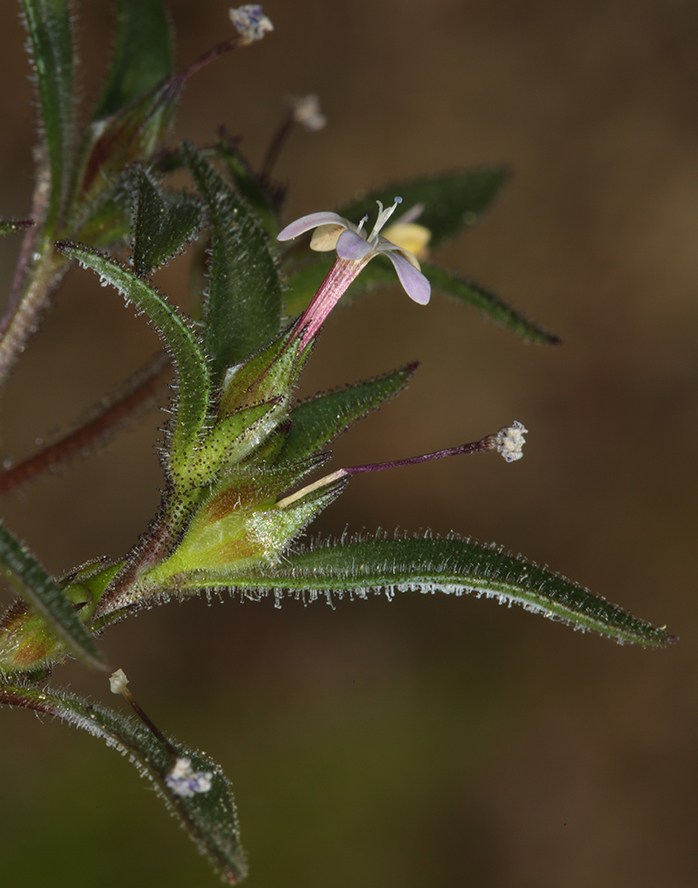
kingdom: Plantae
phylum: Tracheophyta
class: Magnoliopsida
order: Ericales
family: Polemoniaceae
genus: Collomia
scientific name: Collomia tracyi
